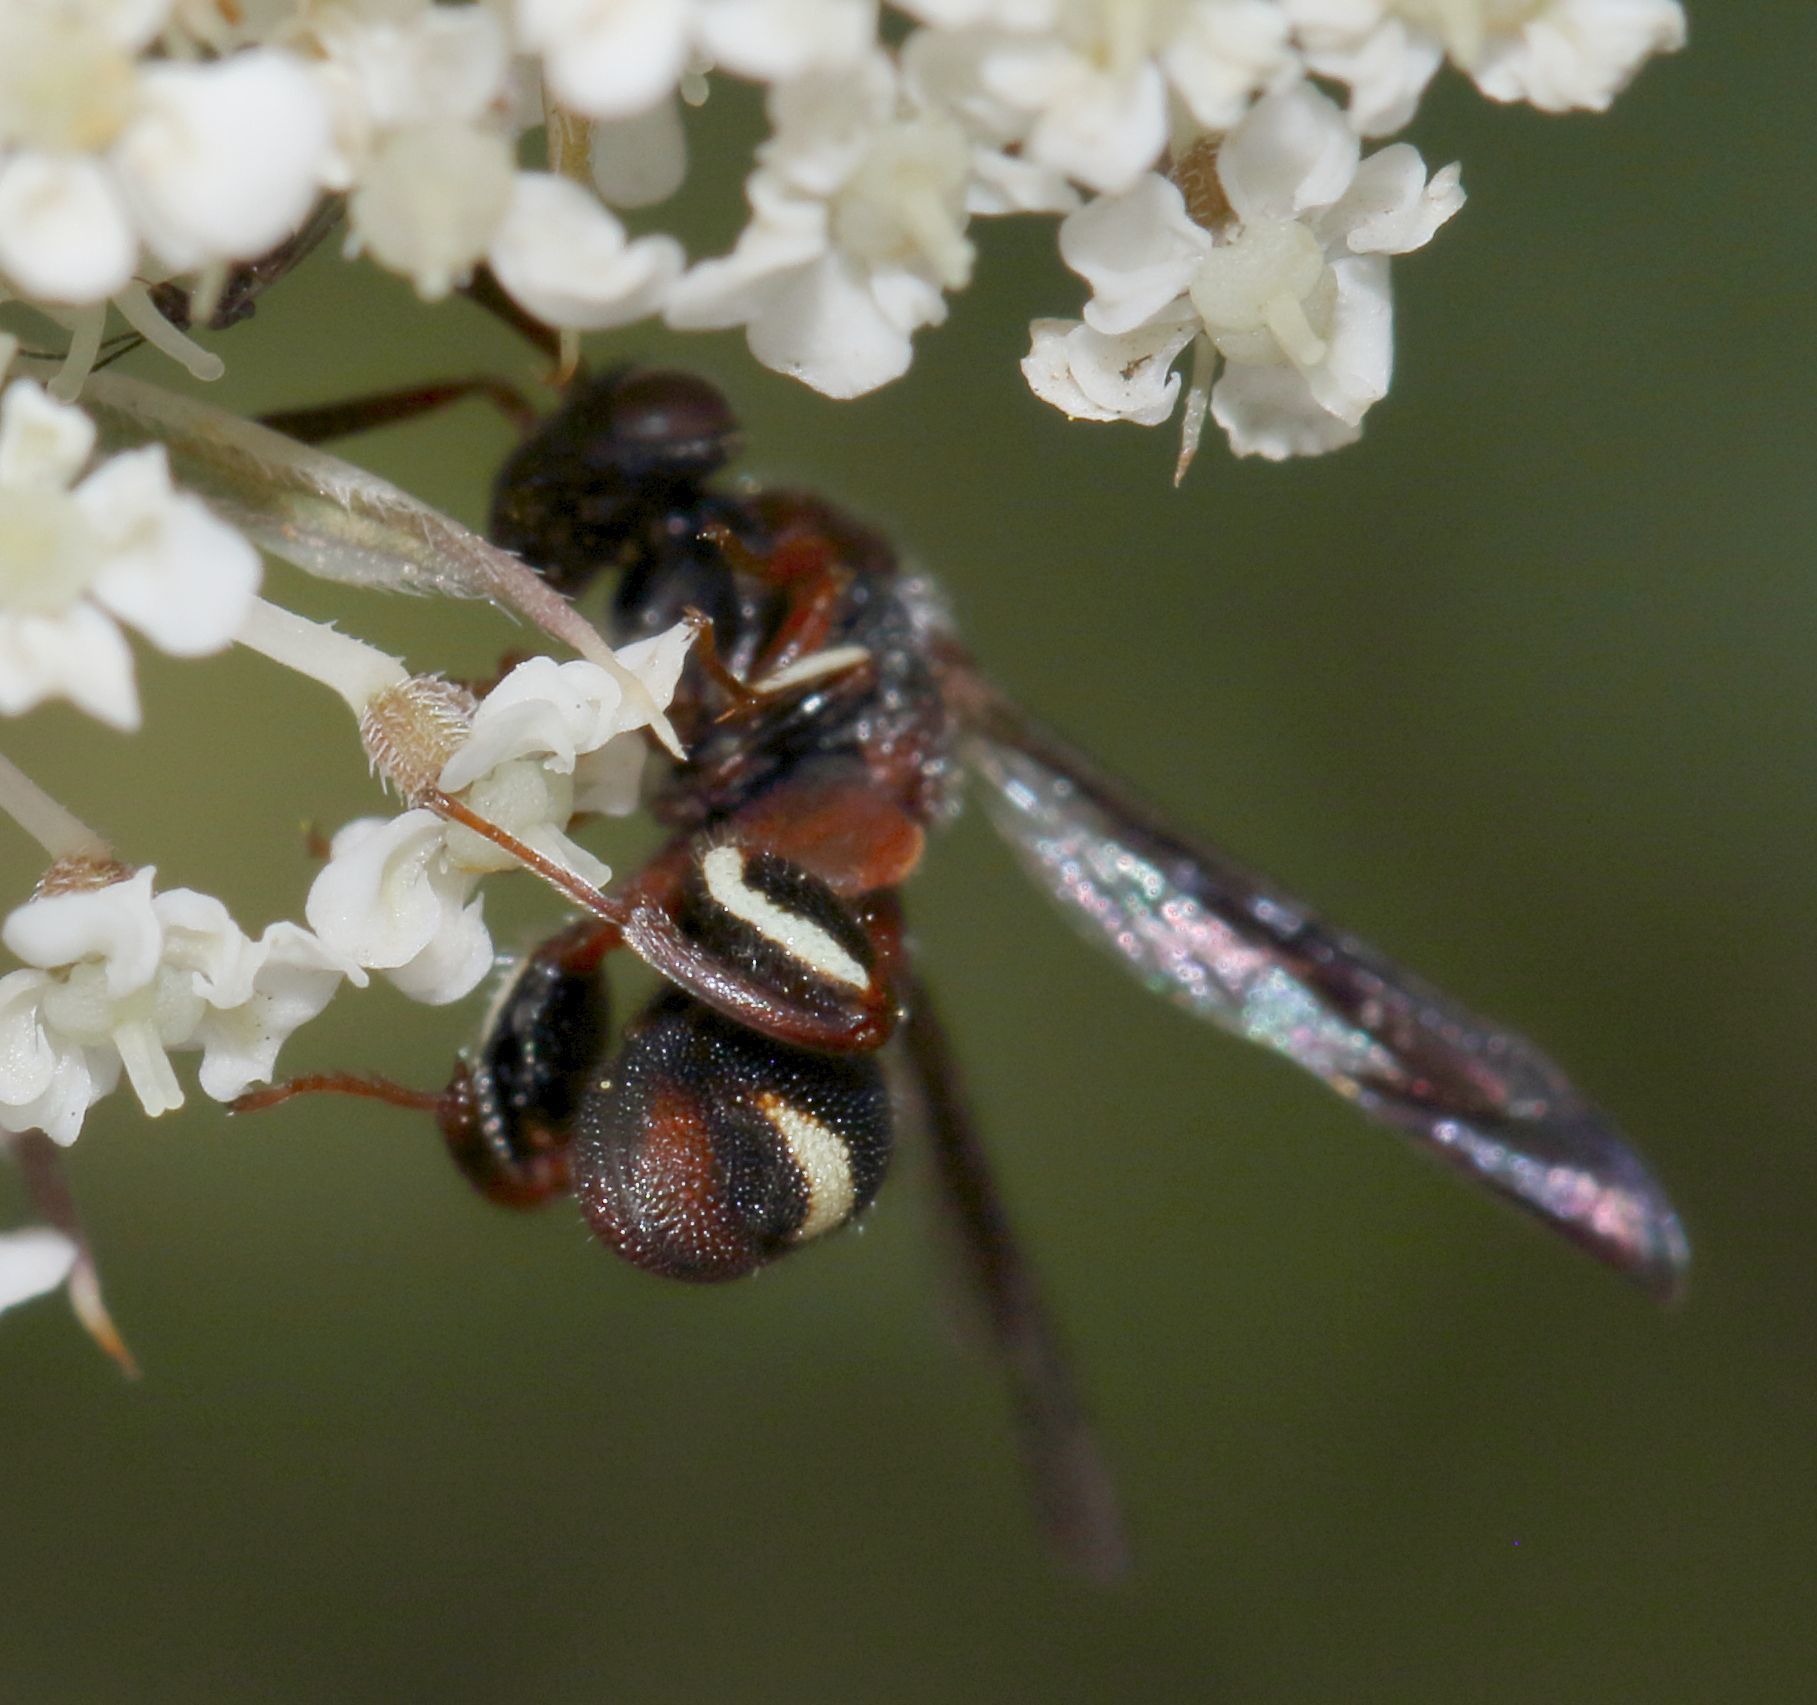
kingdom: Animalia
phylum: Arthropoda
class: Insecta
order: Hymenoptera
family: Leucospidae
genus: Leucospis
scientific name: Leucospis africana
